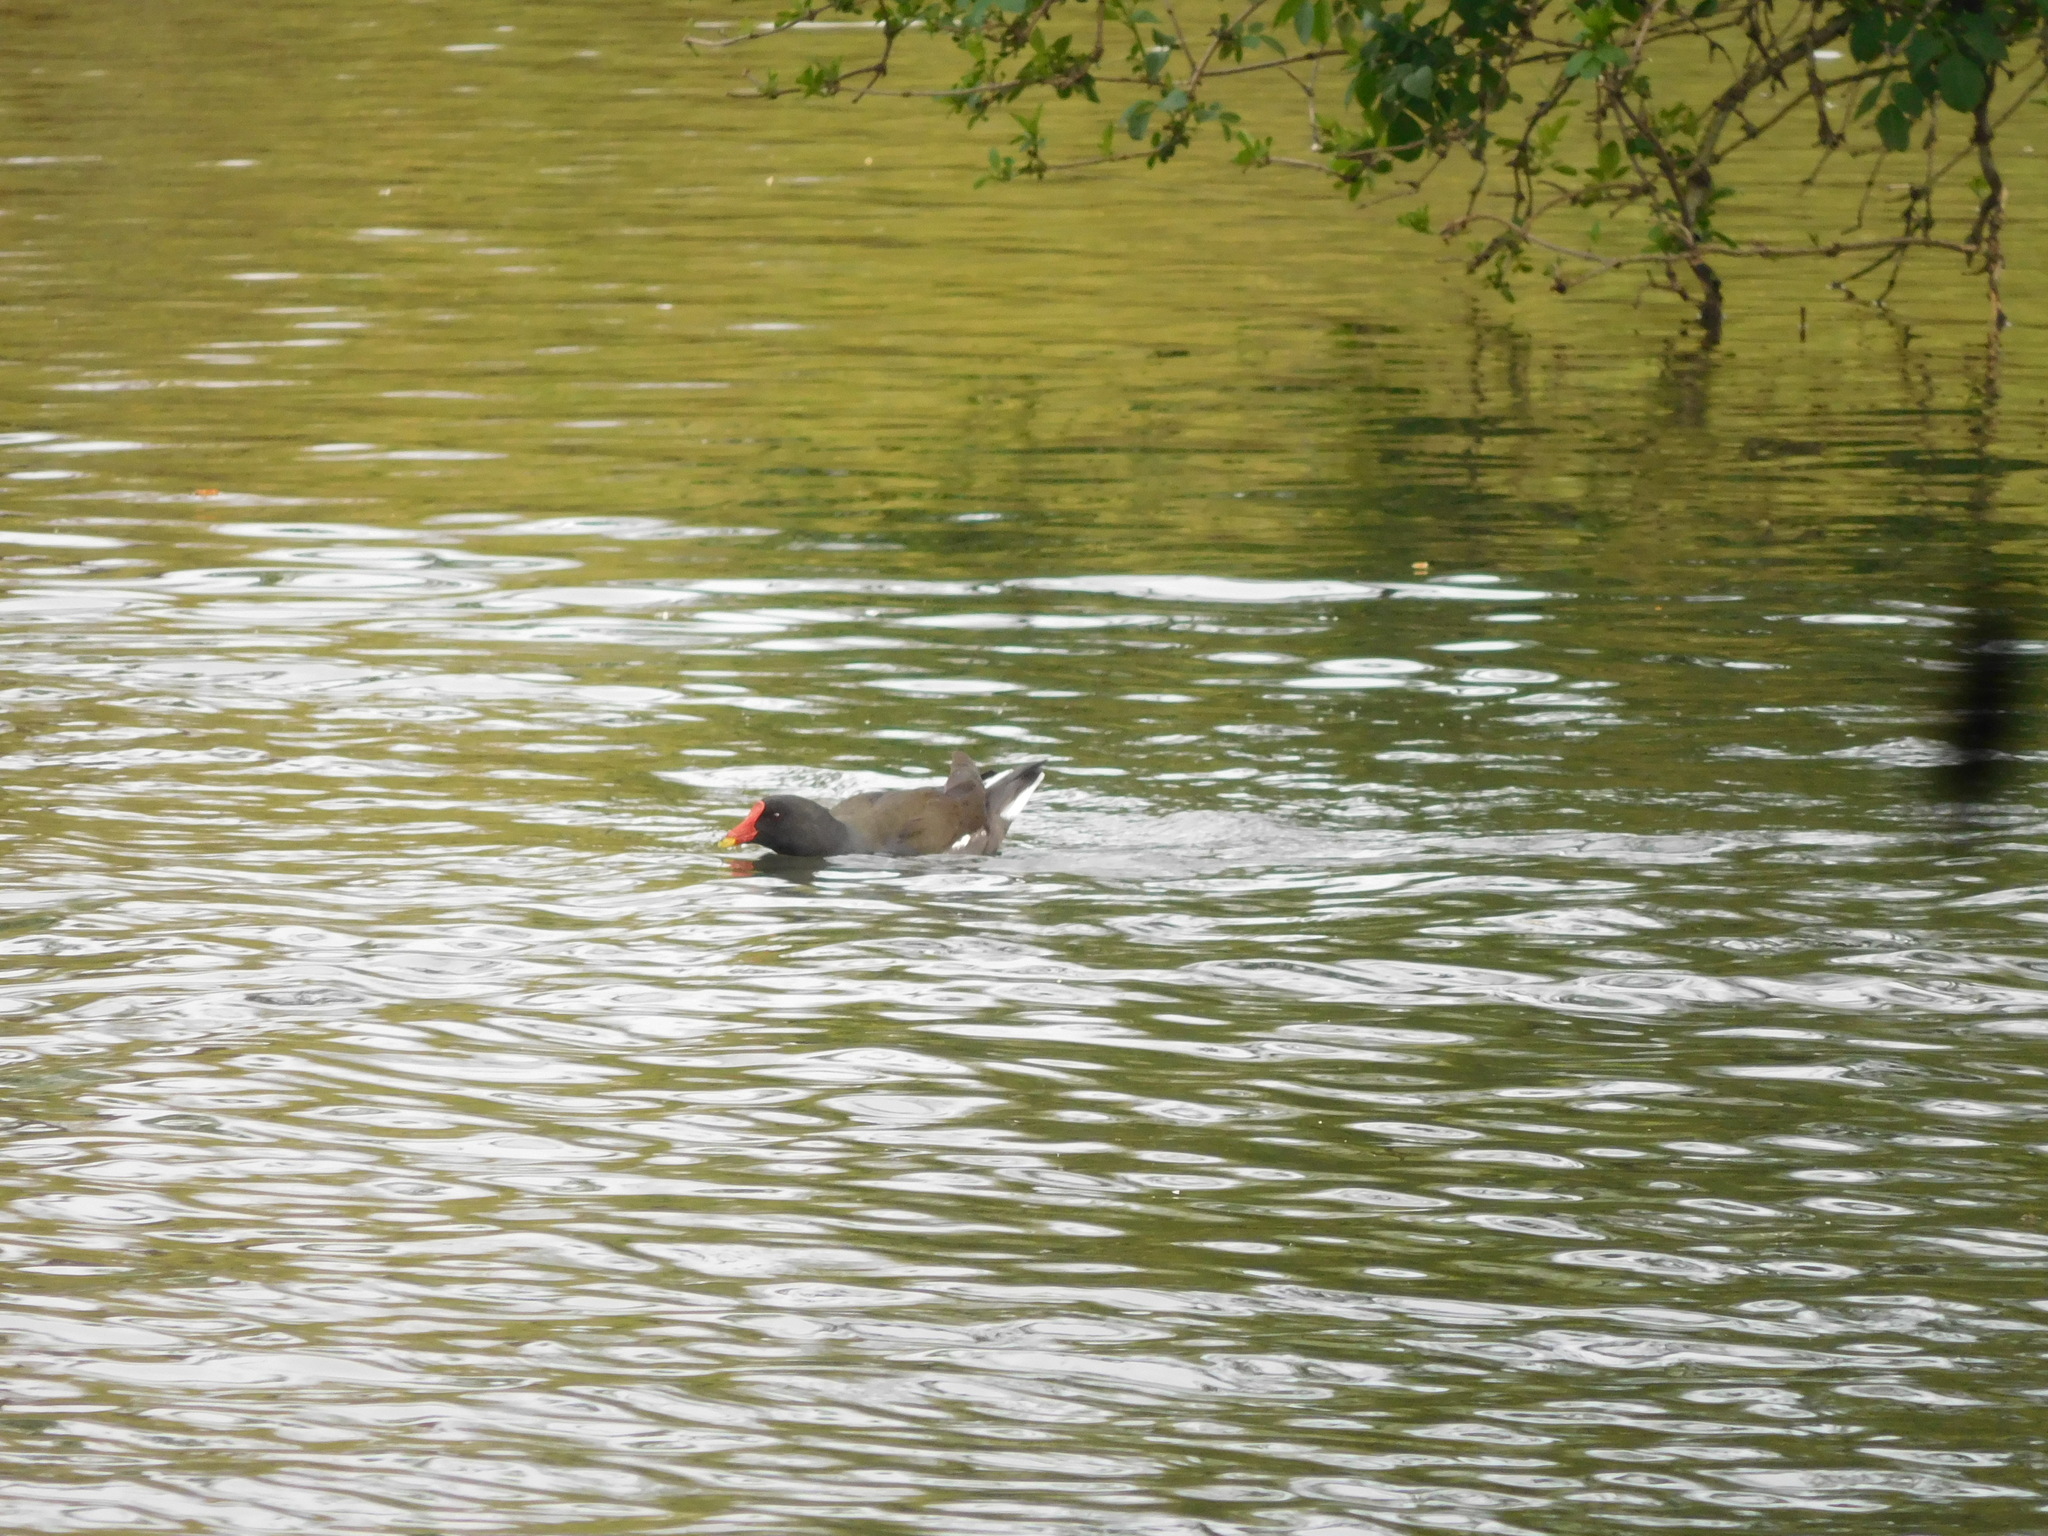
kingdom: Animalia
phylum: Chordata
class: Aves
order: Gruiformes
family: Rallidae
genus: Gallinula
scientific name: Gallinula chloropus
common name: Common moorhen
